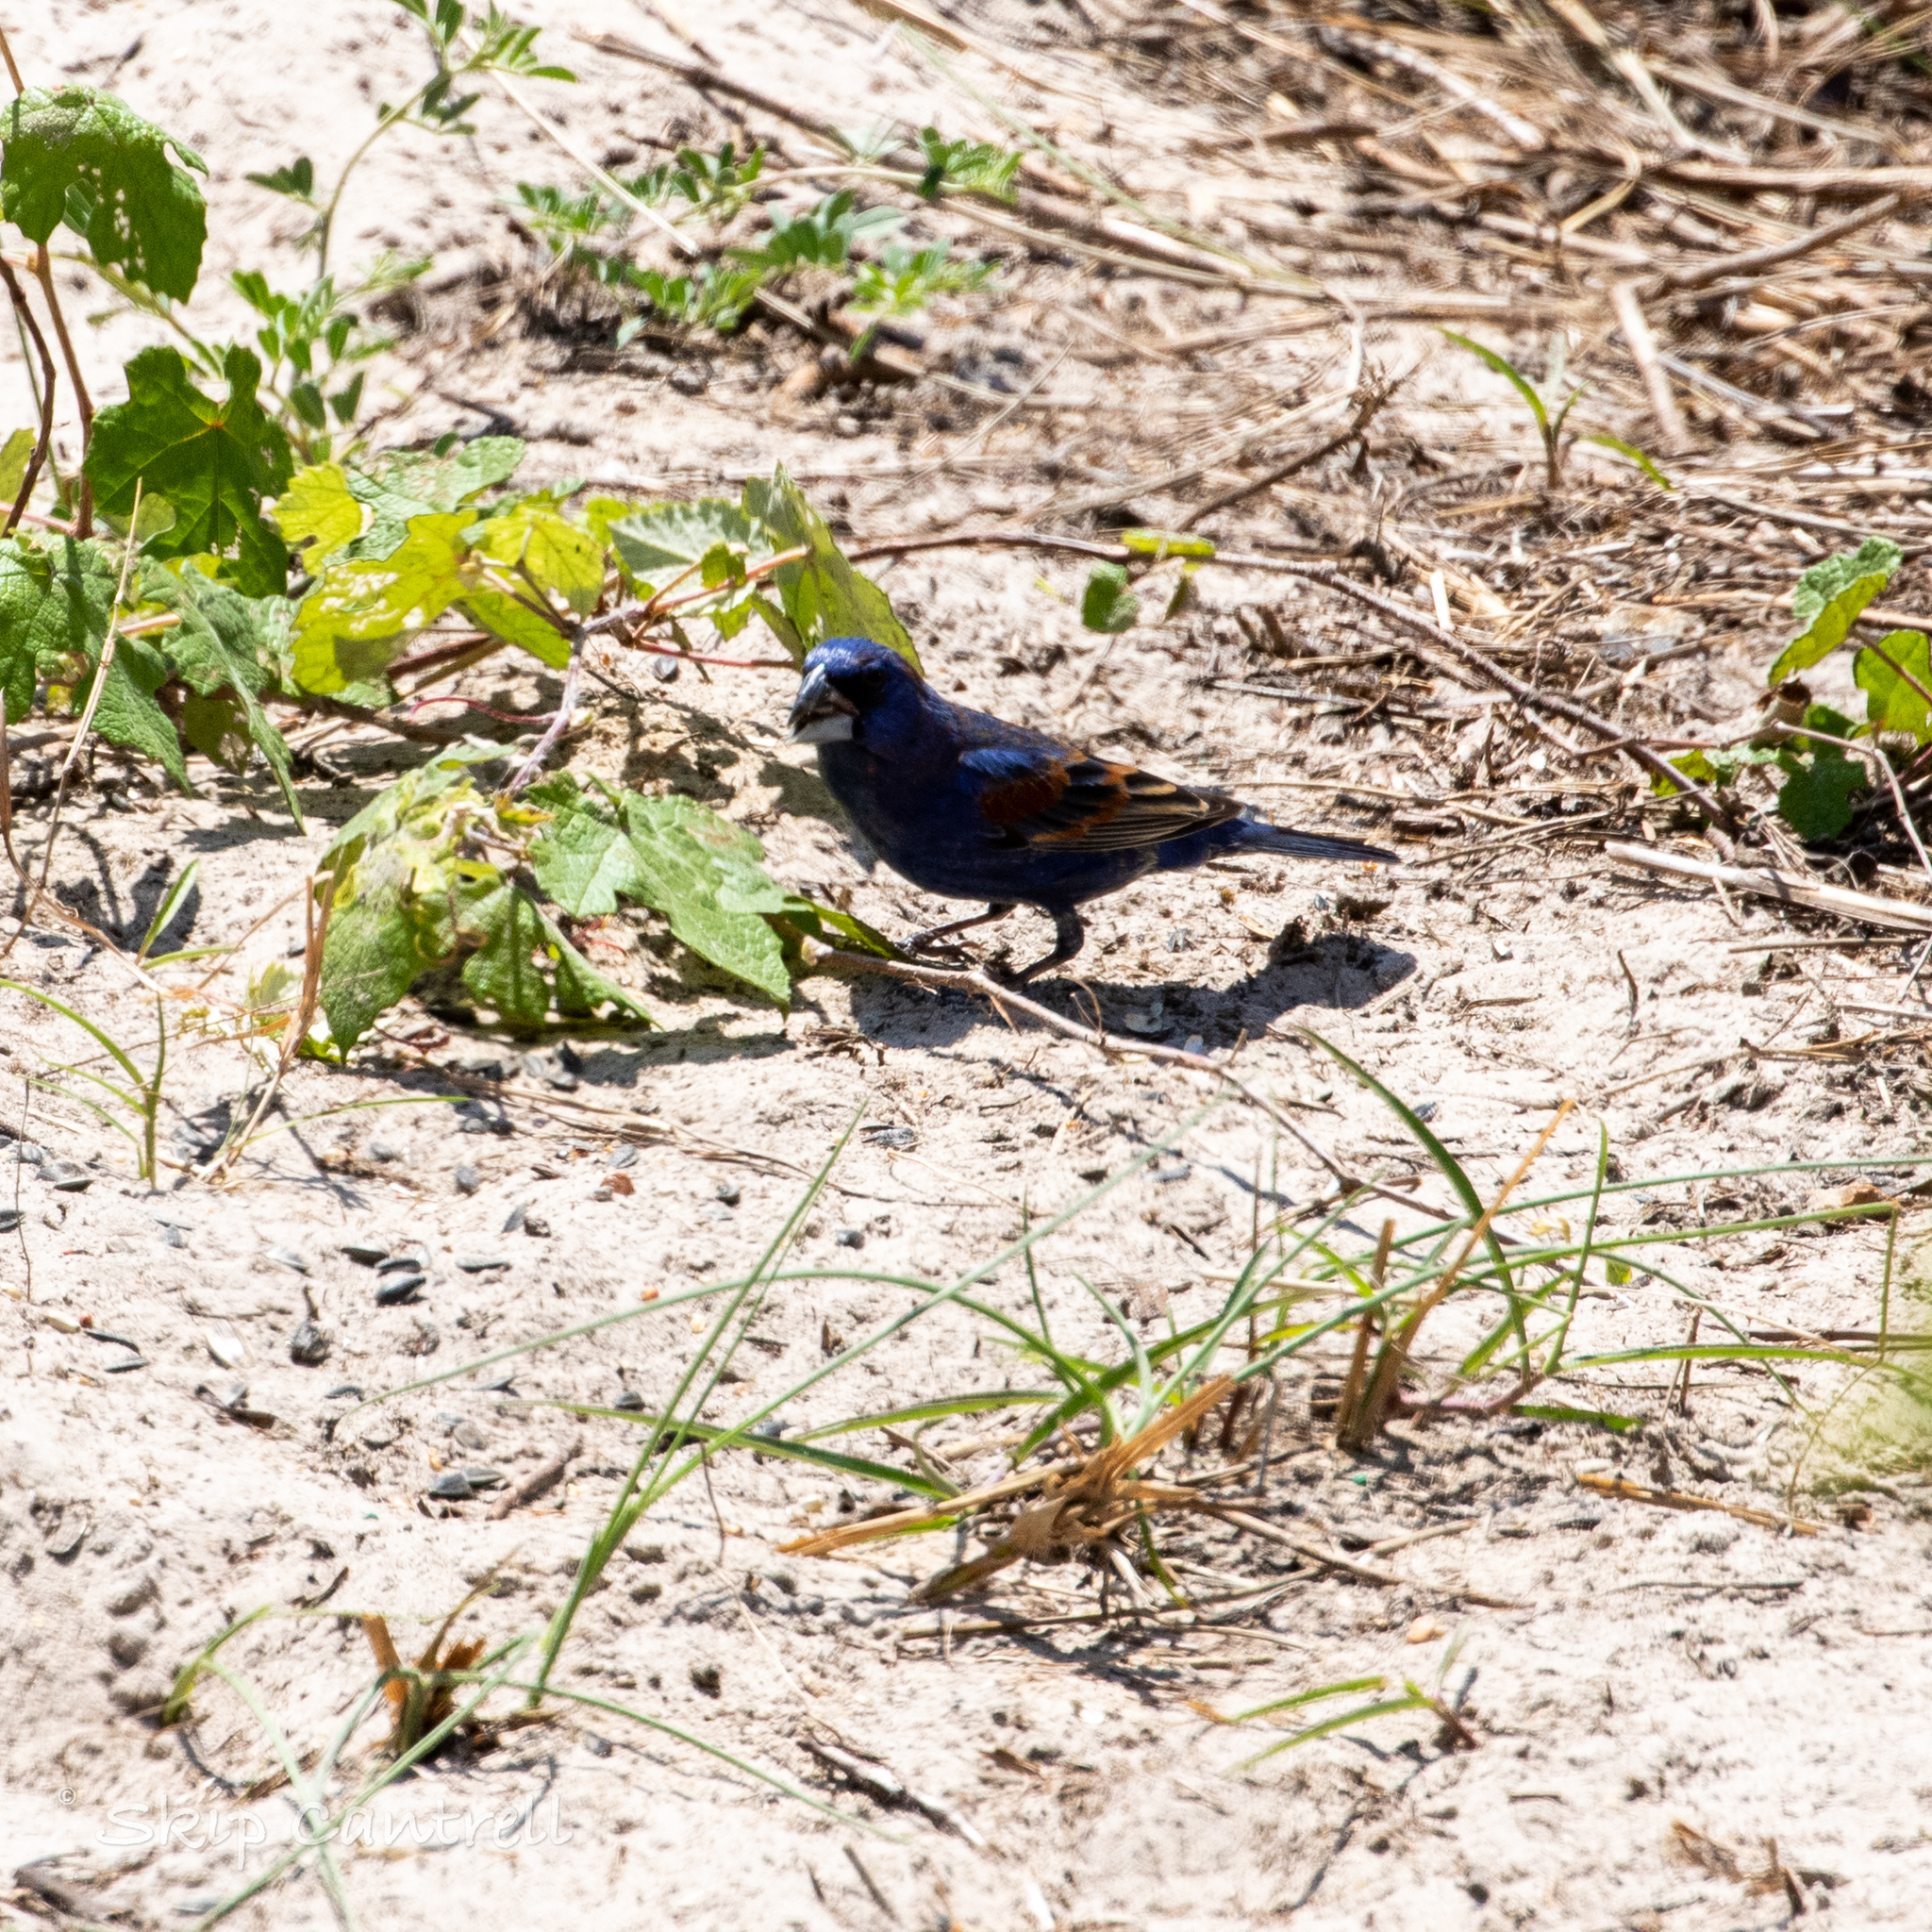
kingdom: Animalia
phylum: Chordata
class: Aves
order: Passeriformes
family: Cardinalidae
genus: Passerina
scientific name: Passerina caerulea
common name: Blue grosbeak
